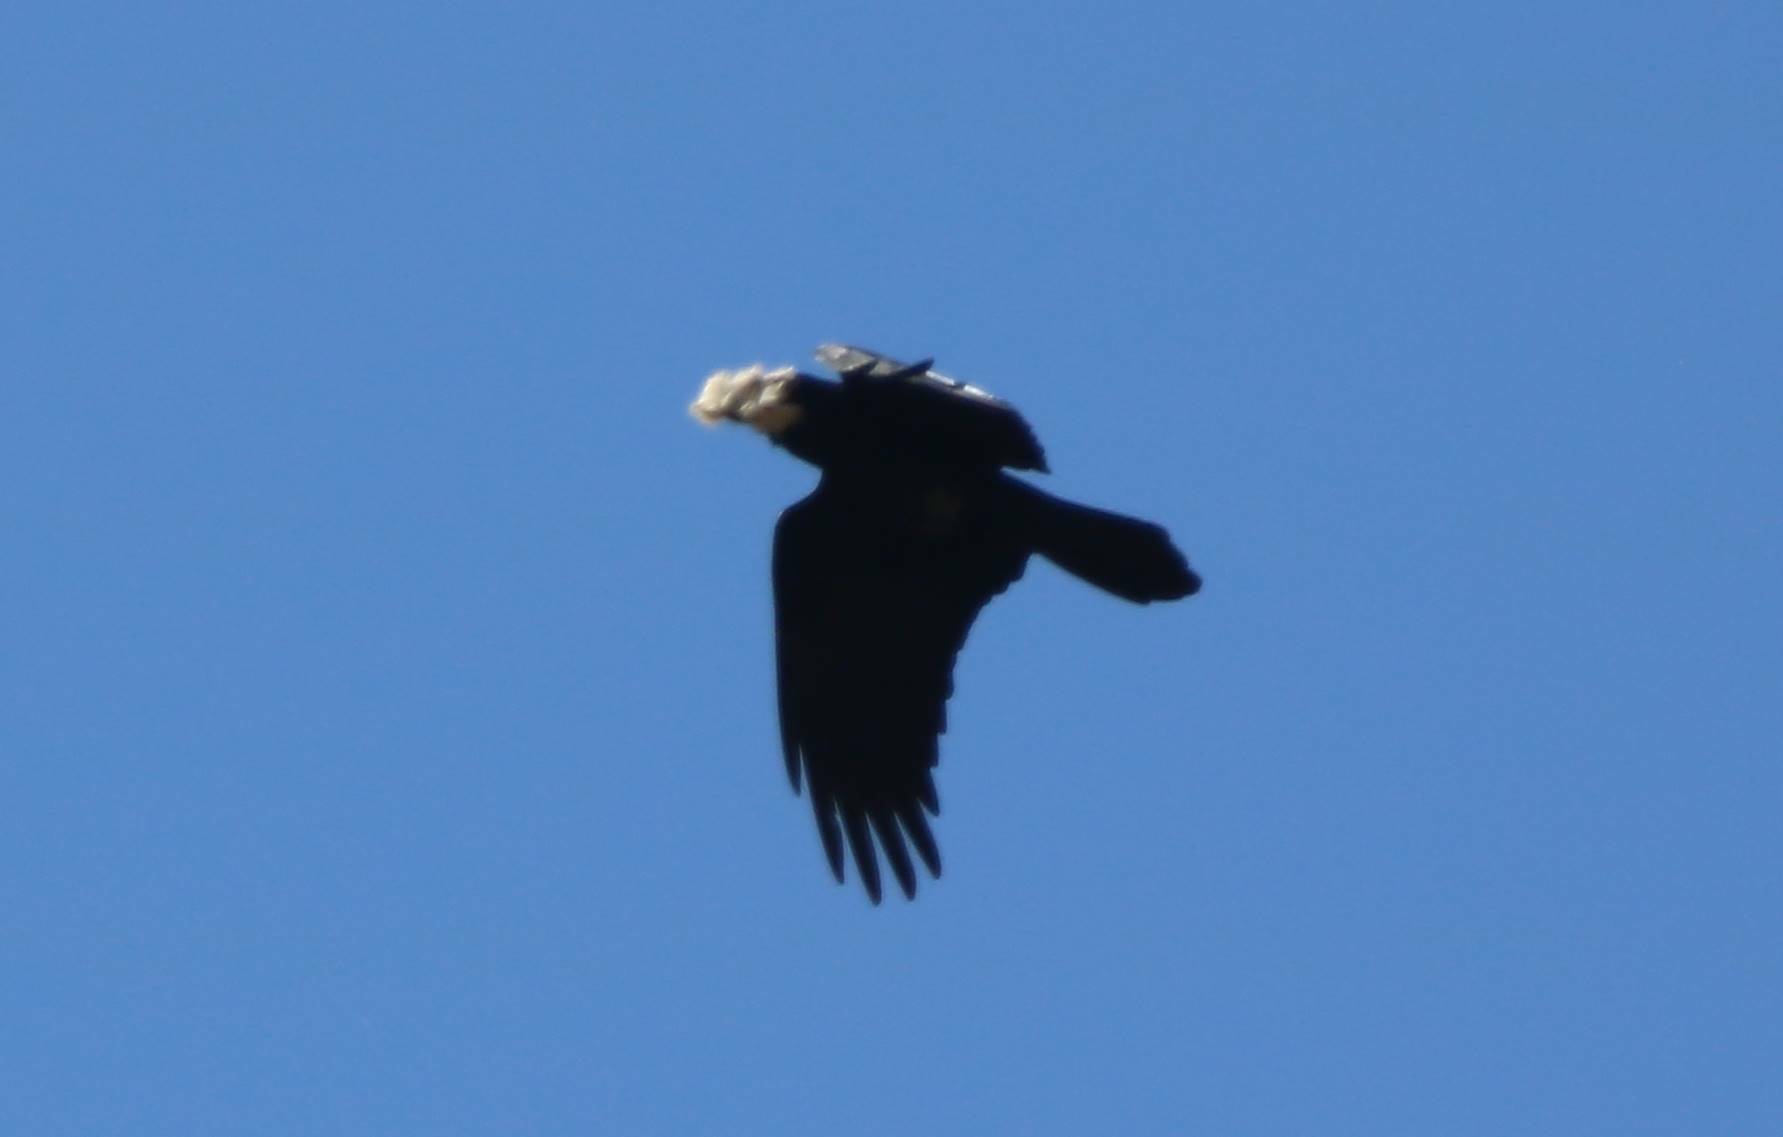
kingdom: Animalia
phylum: Chordata
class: Aves
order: Passeriformes
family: Corvidae
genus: Corvus
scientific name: Corvus corax
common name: Common raven
